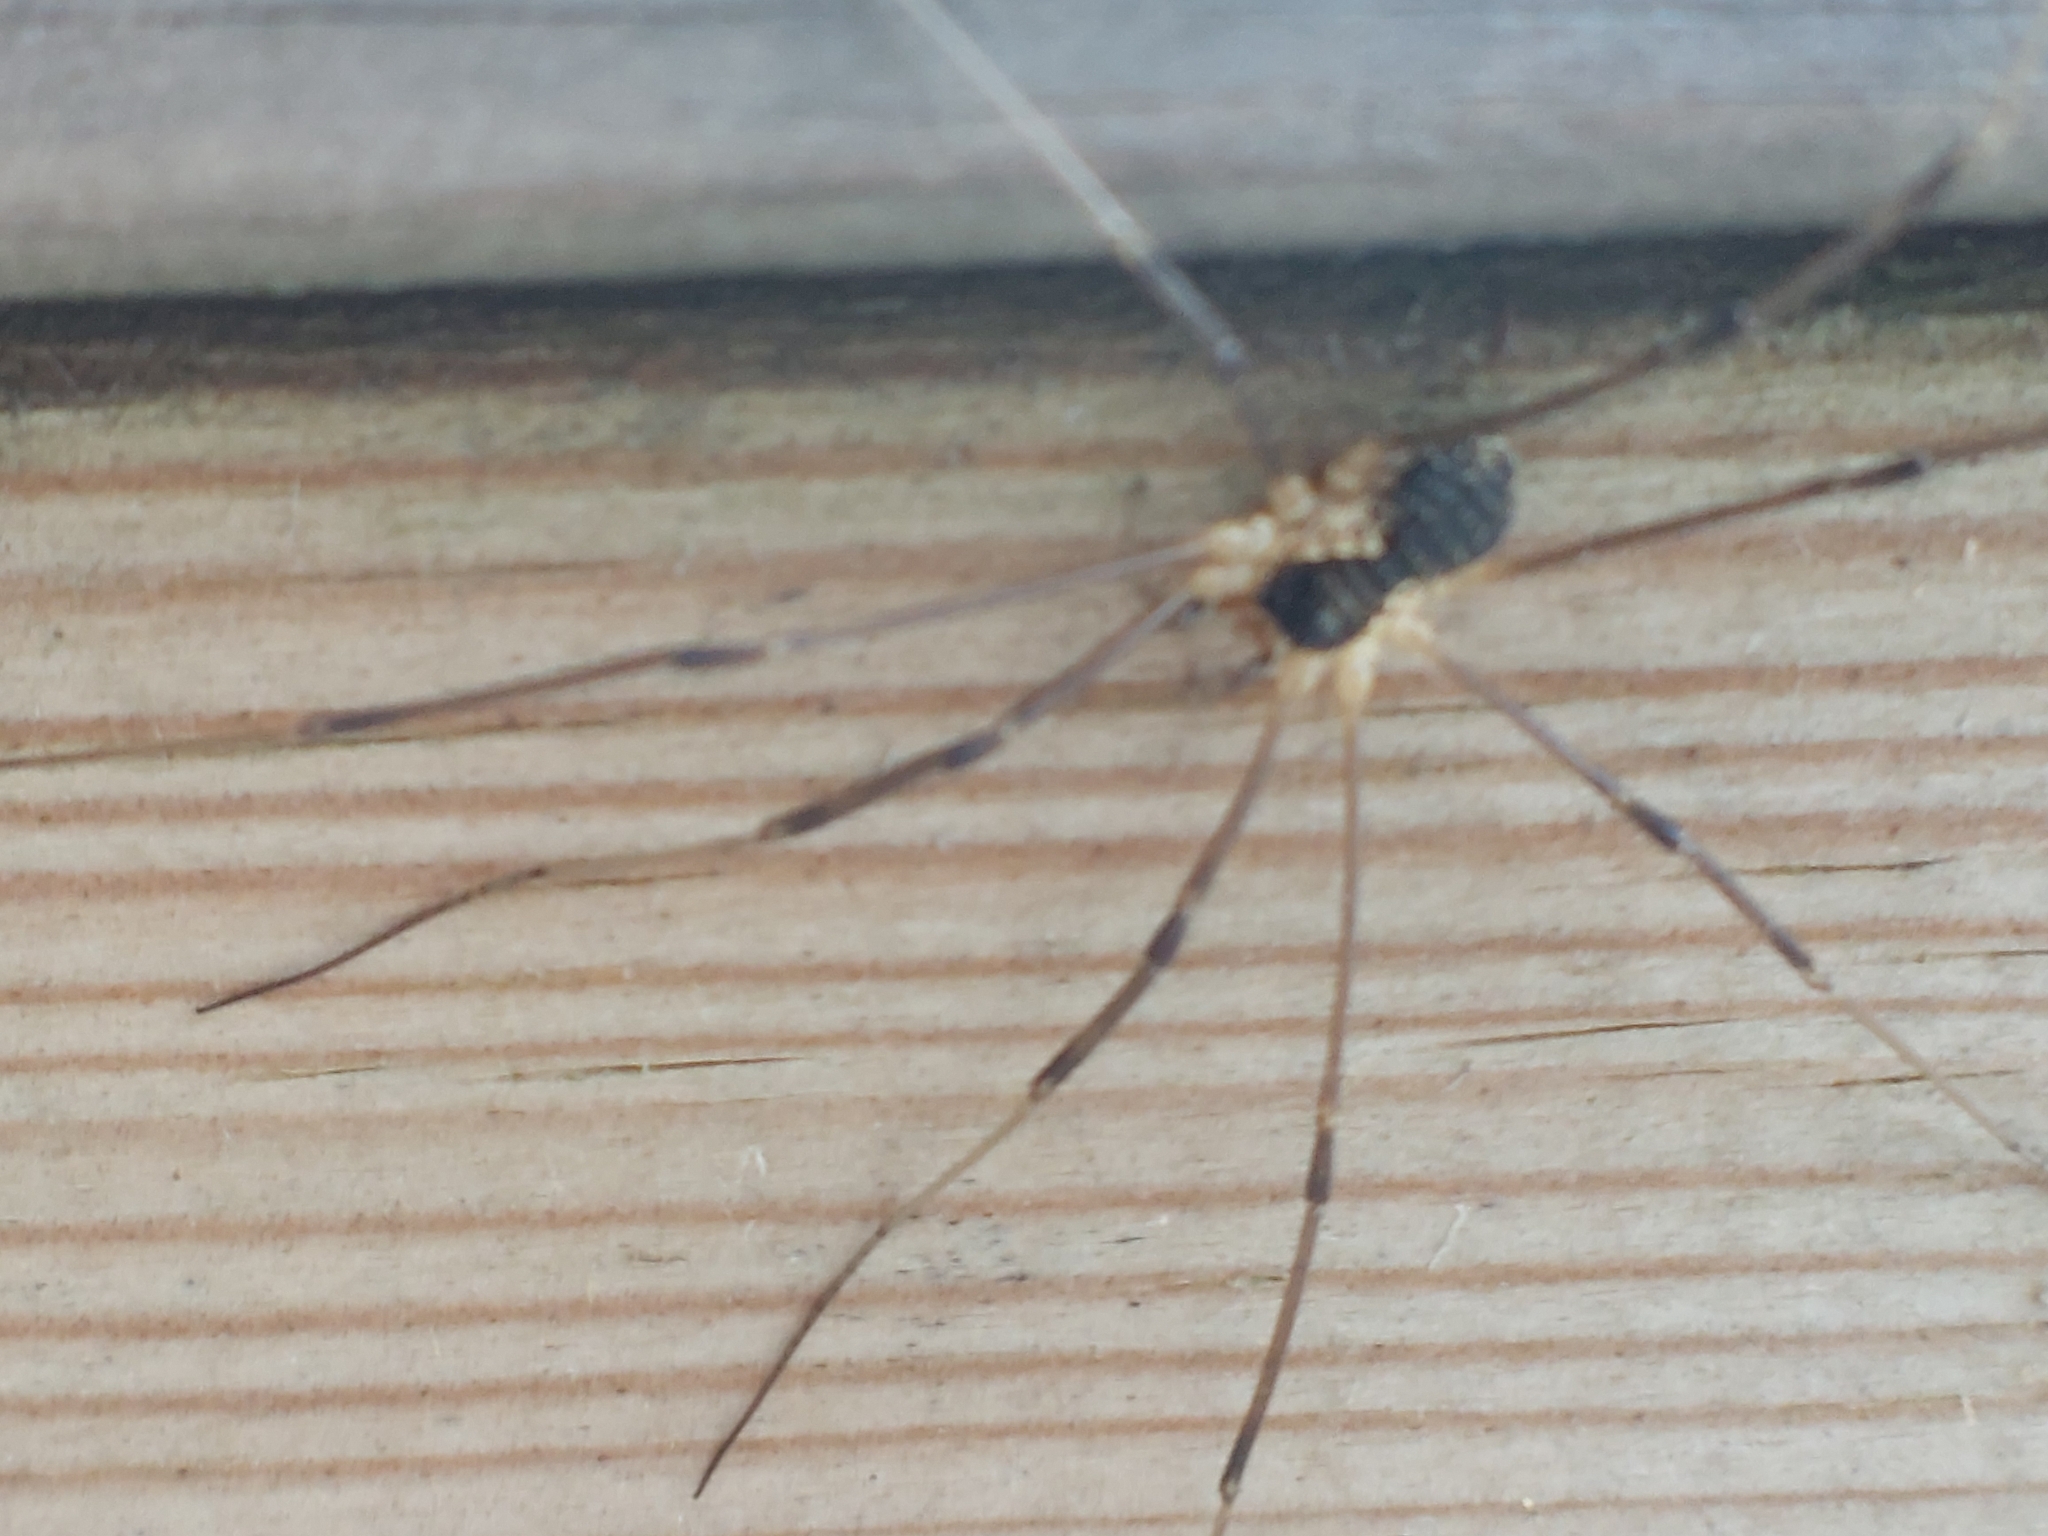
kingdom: Animalia
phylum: Arthropoda
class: Arachnida
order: Opiliones
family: Phalangiidae
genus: Mitopus
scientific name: Mitopus morio
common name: Saddleback harvestman
